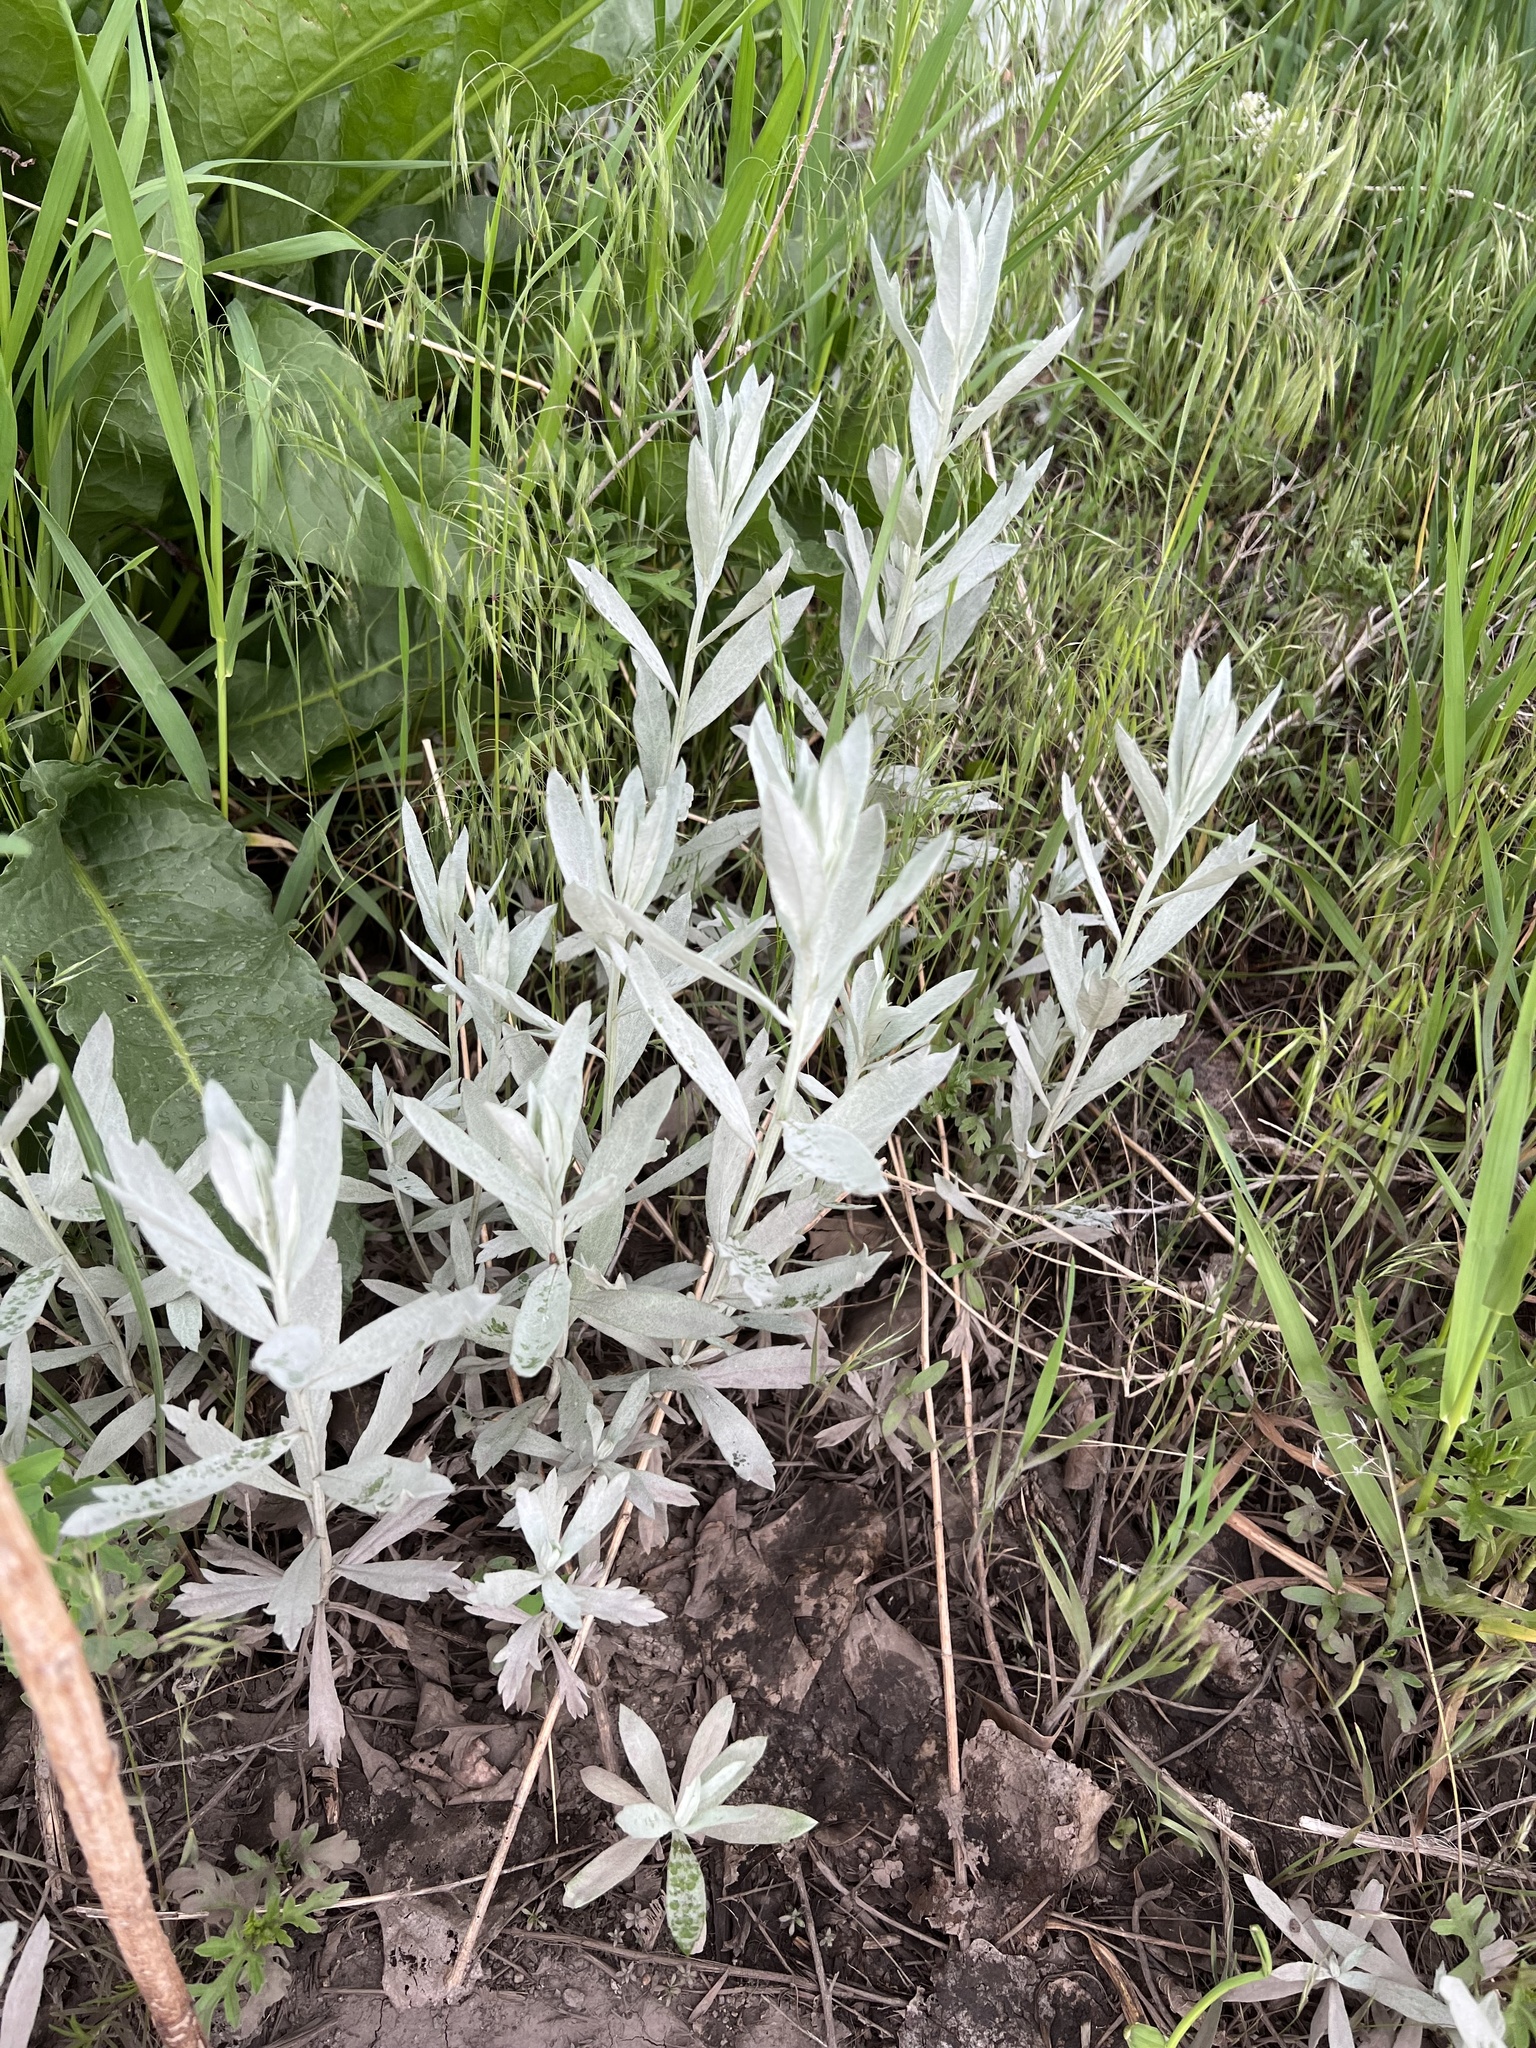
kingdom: Plantae
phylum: Tracheophyta
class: Magnoliopsida
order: Asterales
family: Asteraceae
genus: Artemisia
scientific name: Artemisia ludoviciana
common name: Western mugwort
